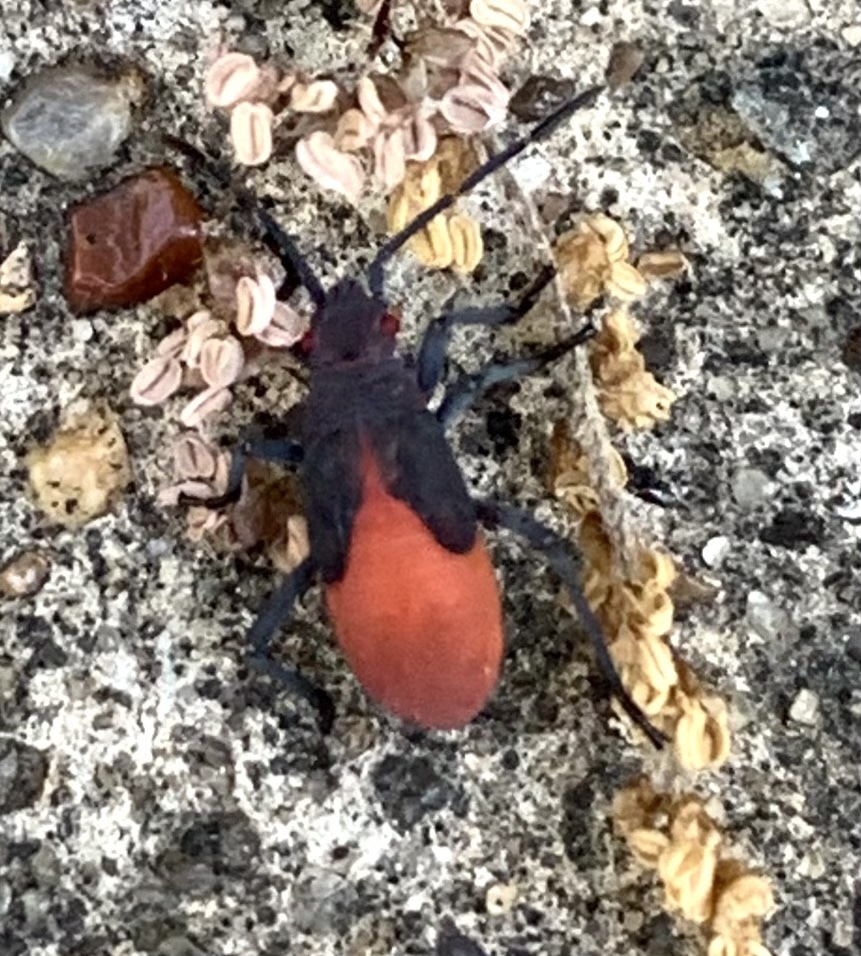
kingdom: Animalia
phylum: Arthropoda
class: Insecta
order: Hemiptera
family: Rhopalidae
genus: Jadera
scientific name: Jadera haematoloma
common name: Red-shouldered bug
